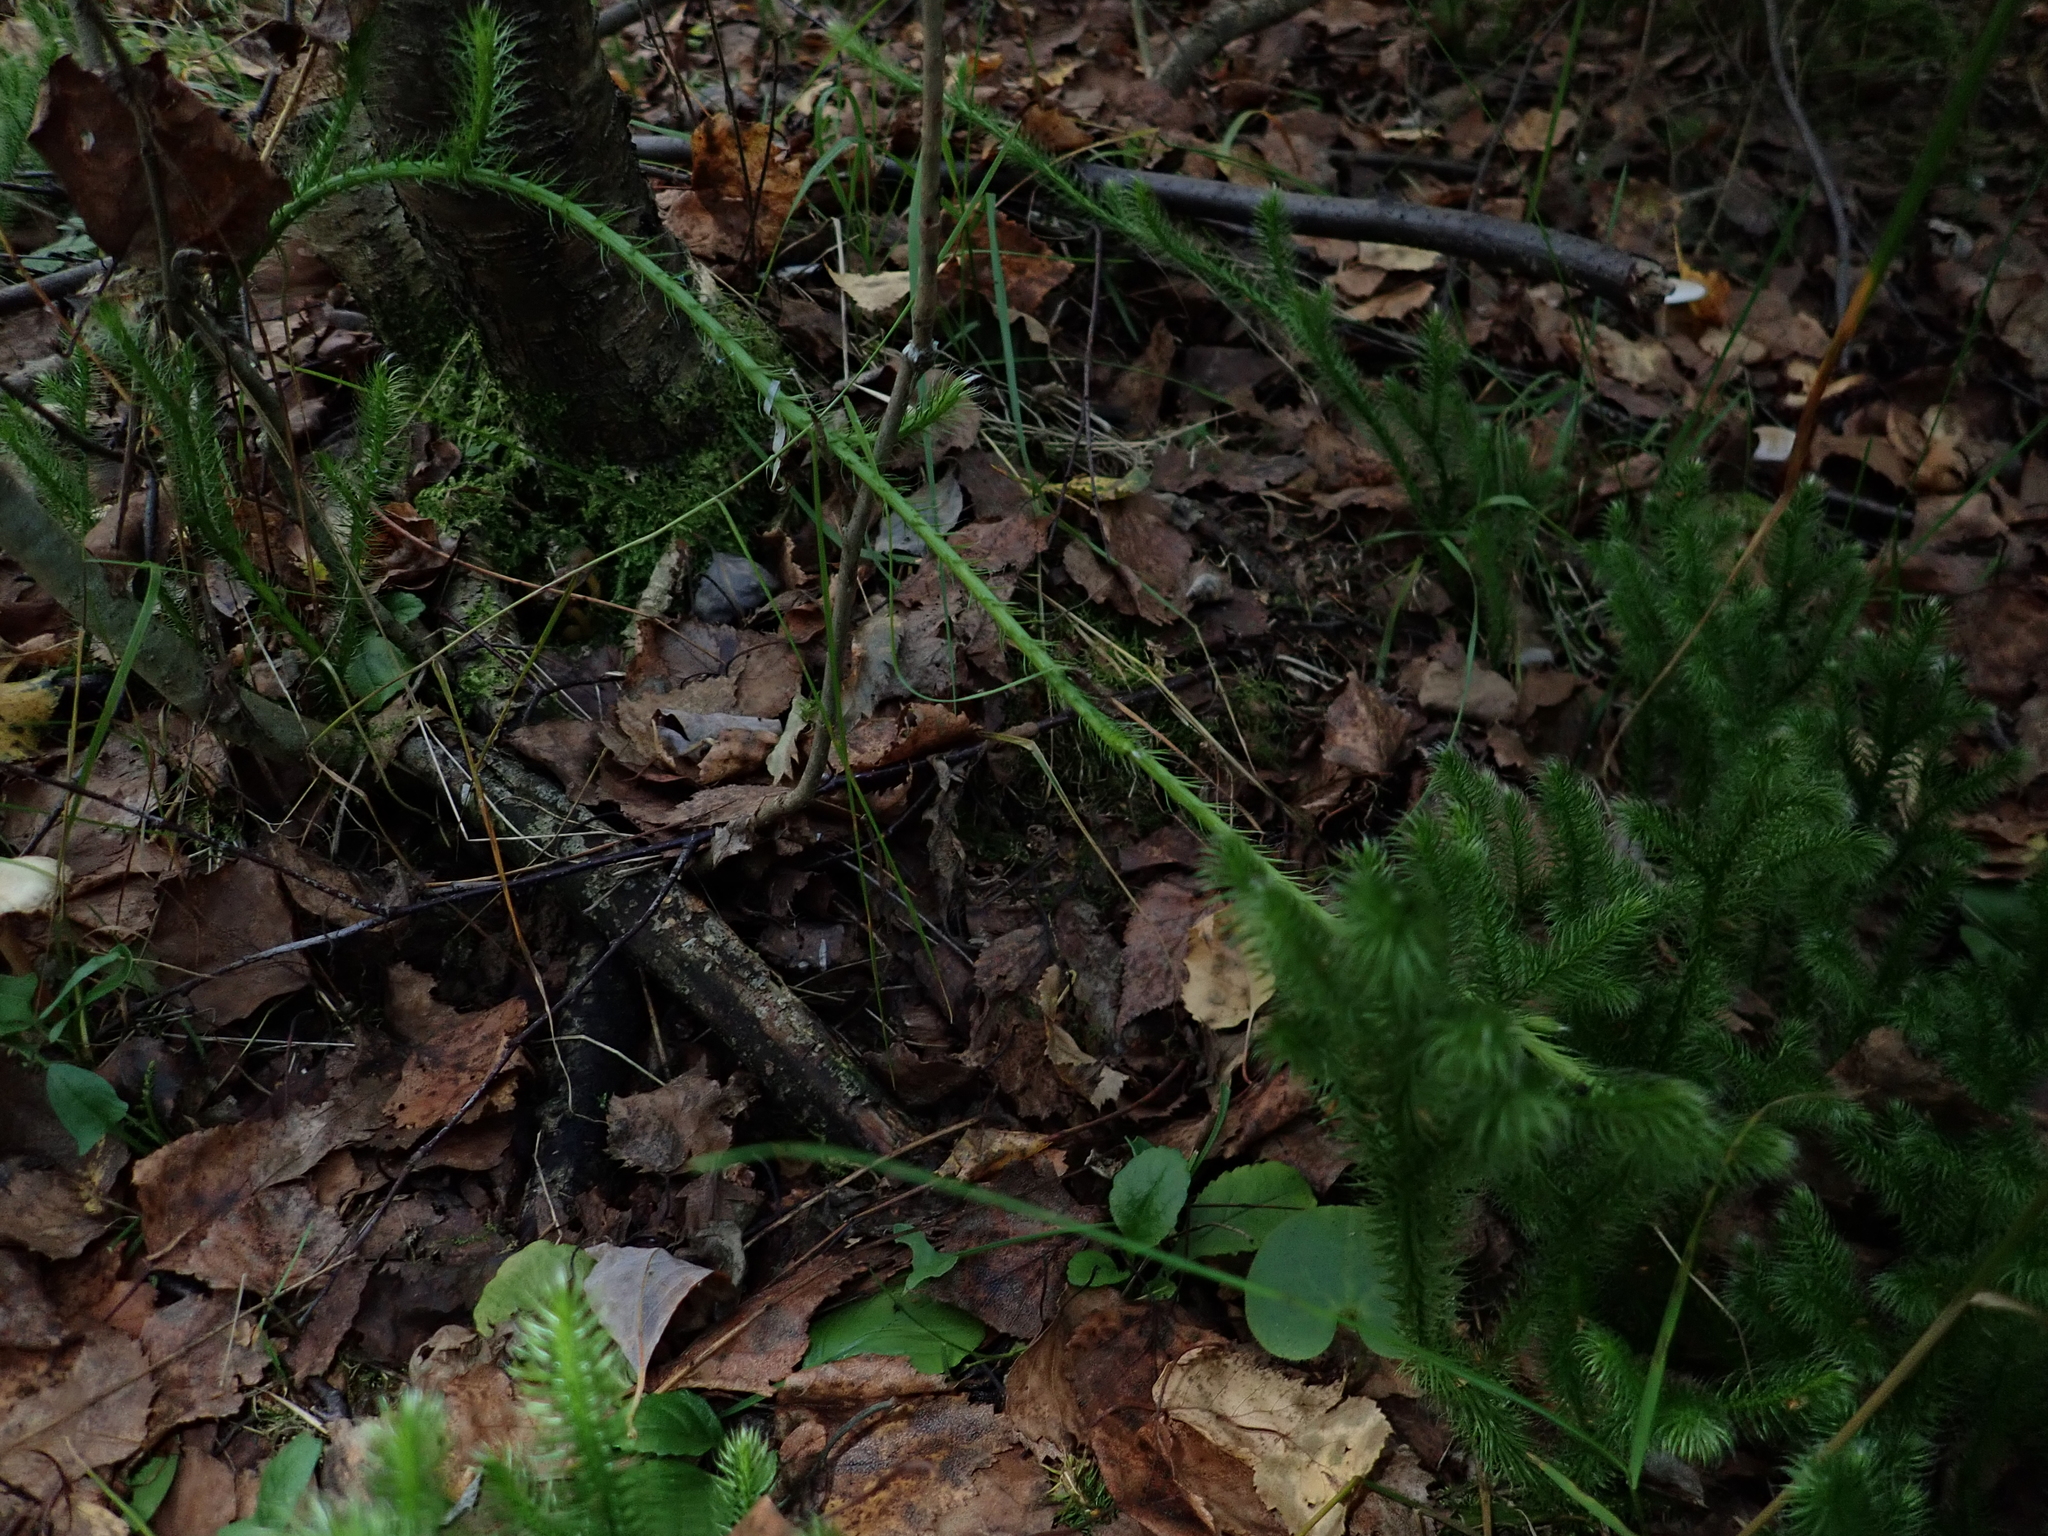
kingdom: Plantae
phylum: Tracheophyta
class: Lycopodiopsida
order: Lycopodiales
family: Lycopodiaceae
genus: Lycopodium
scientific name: Lycopodium clavatum
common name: Stag's-horn clubmoss
